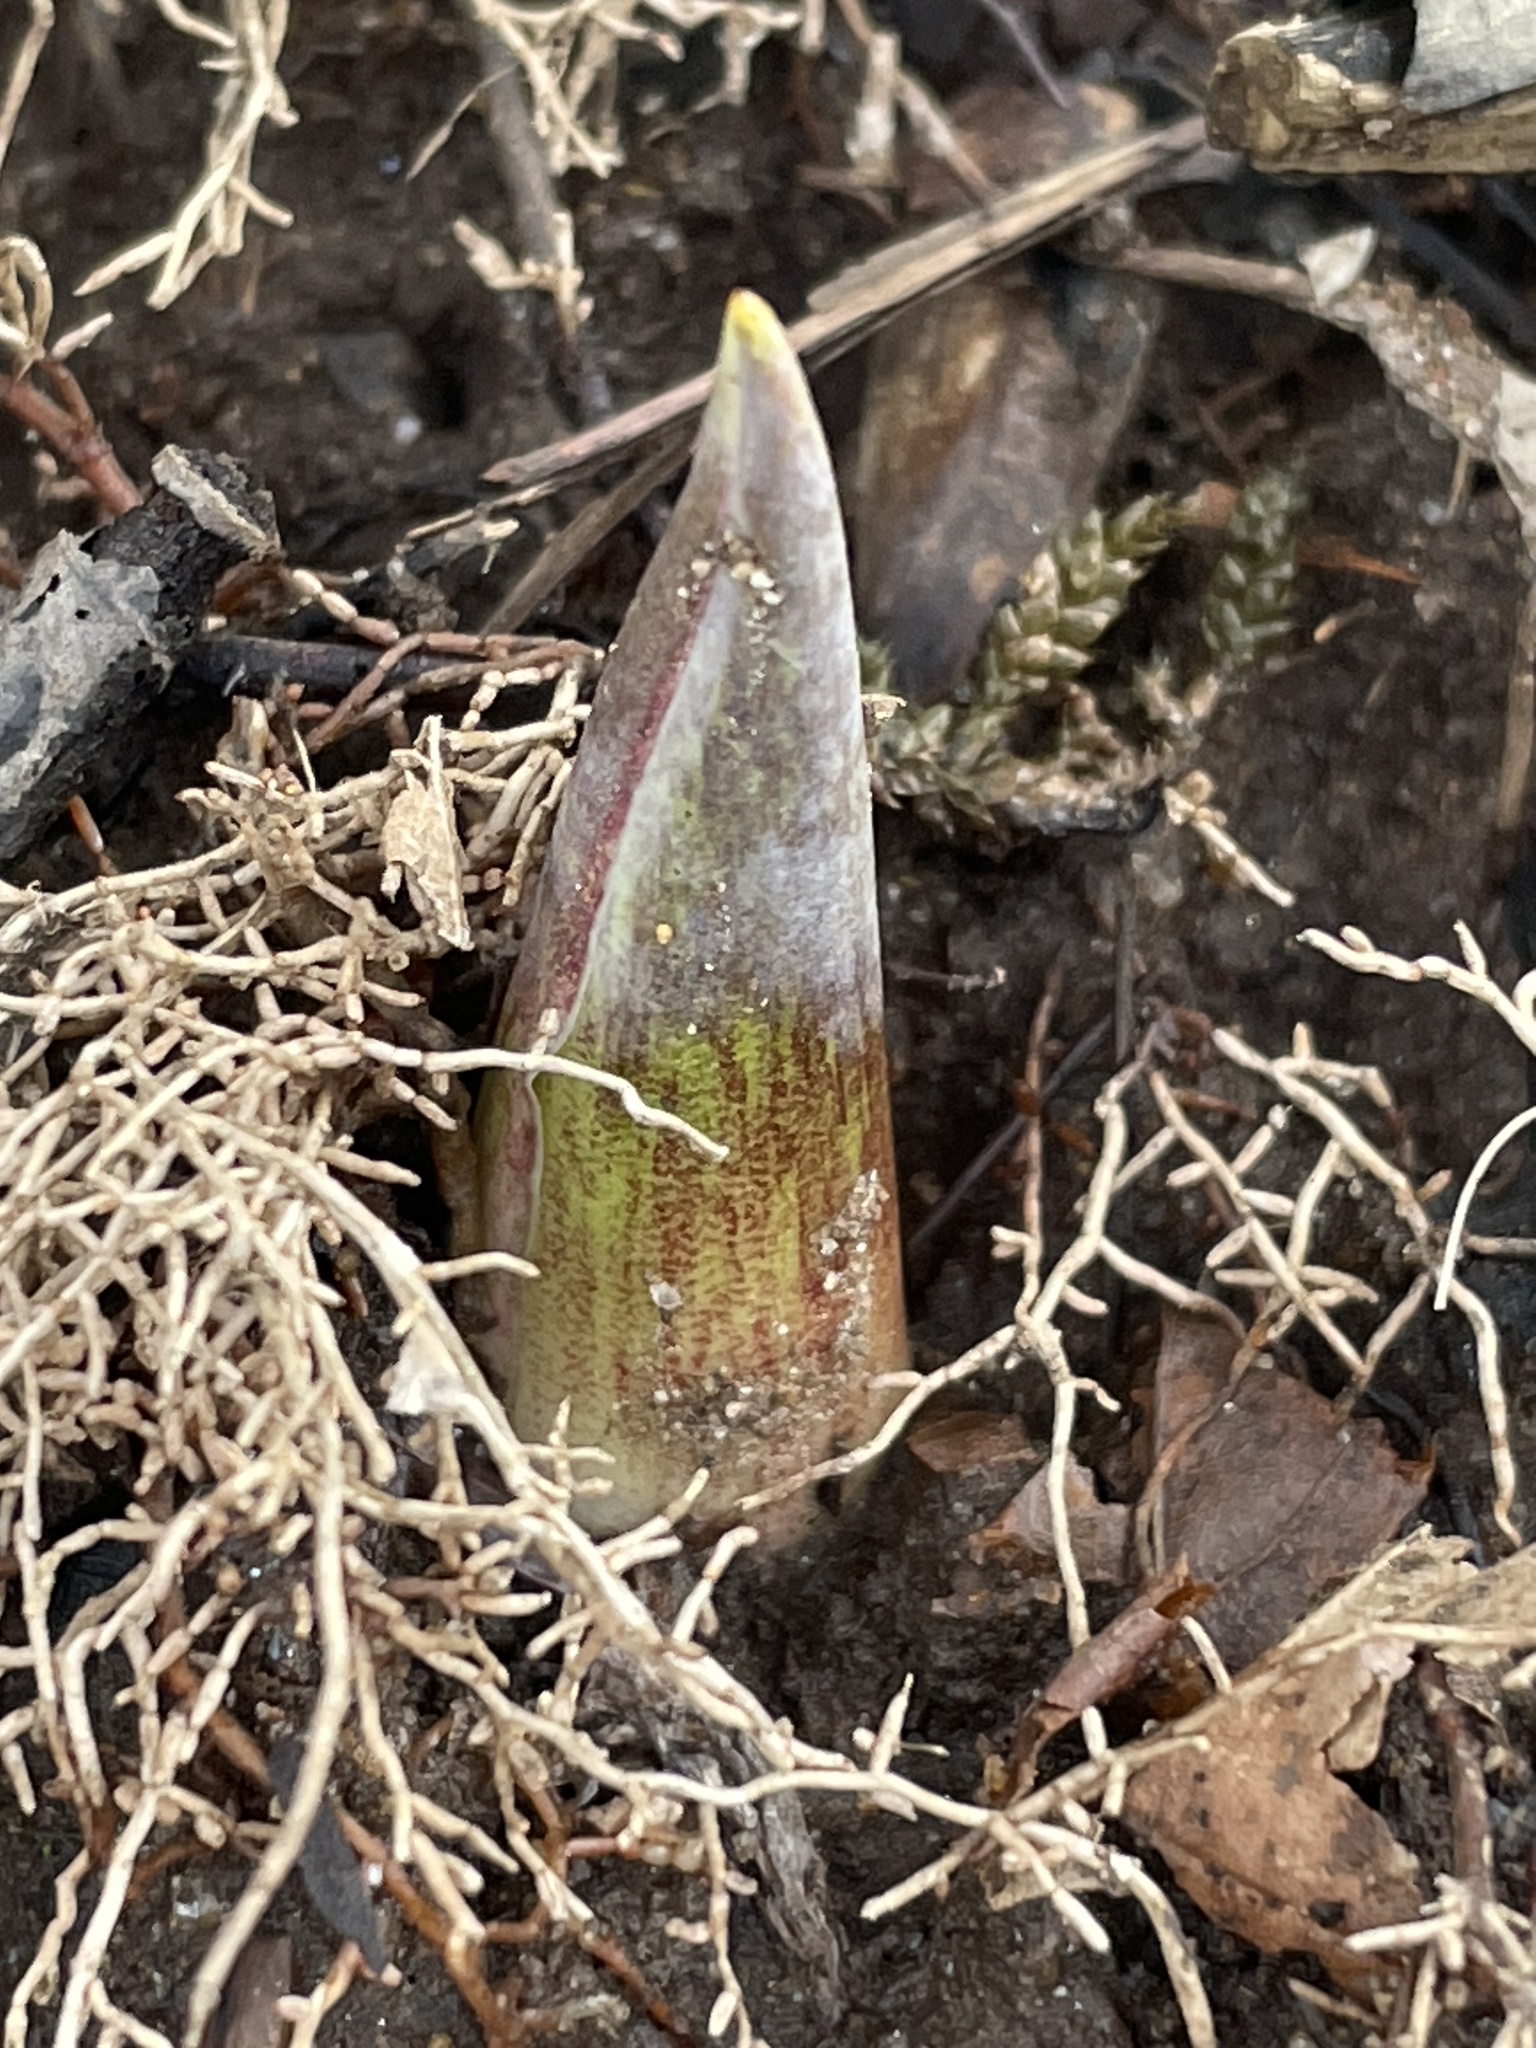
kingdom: Plantae
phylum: Tracheophyta
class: Liliopsida
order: Alismatales
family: Araceae
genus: Symplocarpus
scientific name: Symplocarpus foetidus
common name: Eastern skunk cabbage
